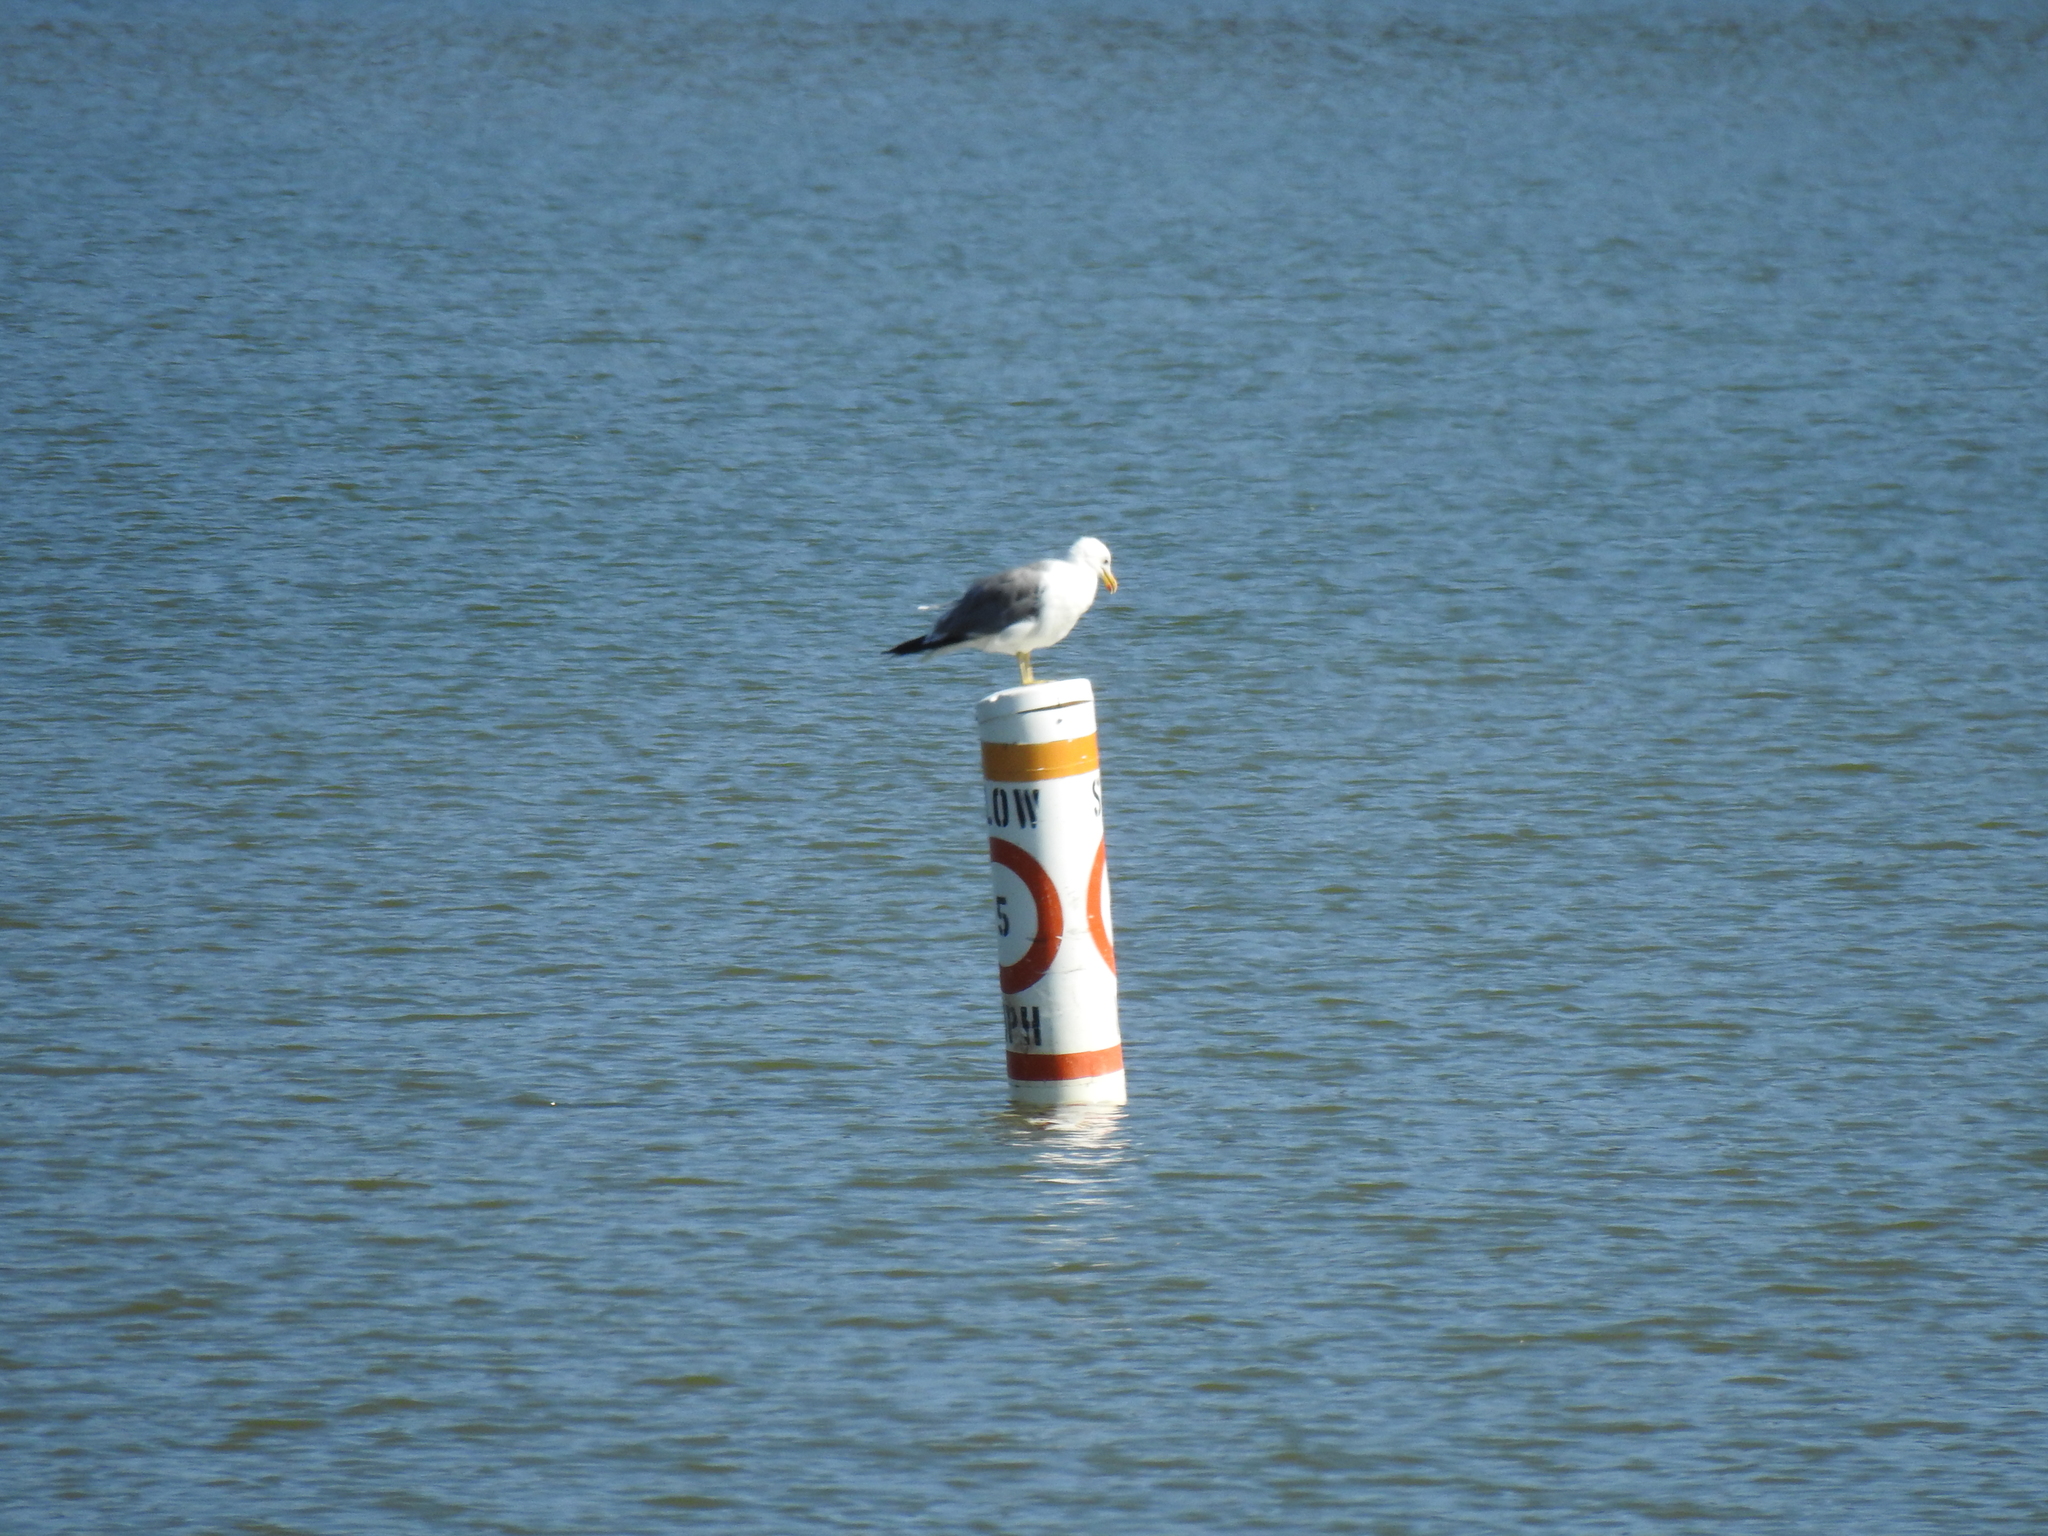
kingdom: Animalia
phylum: Chordata
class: Aves
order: Charadriiformes
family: Laridae
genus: Larus
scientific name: Larus californicus
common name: California gull
